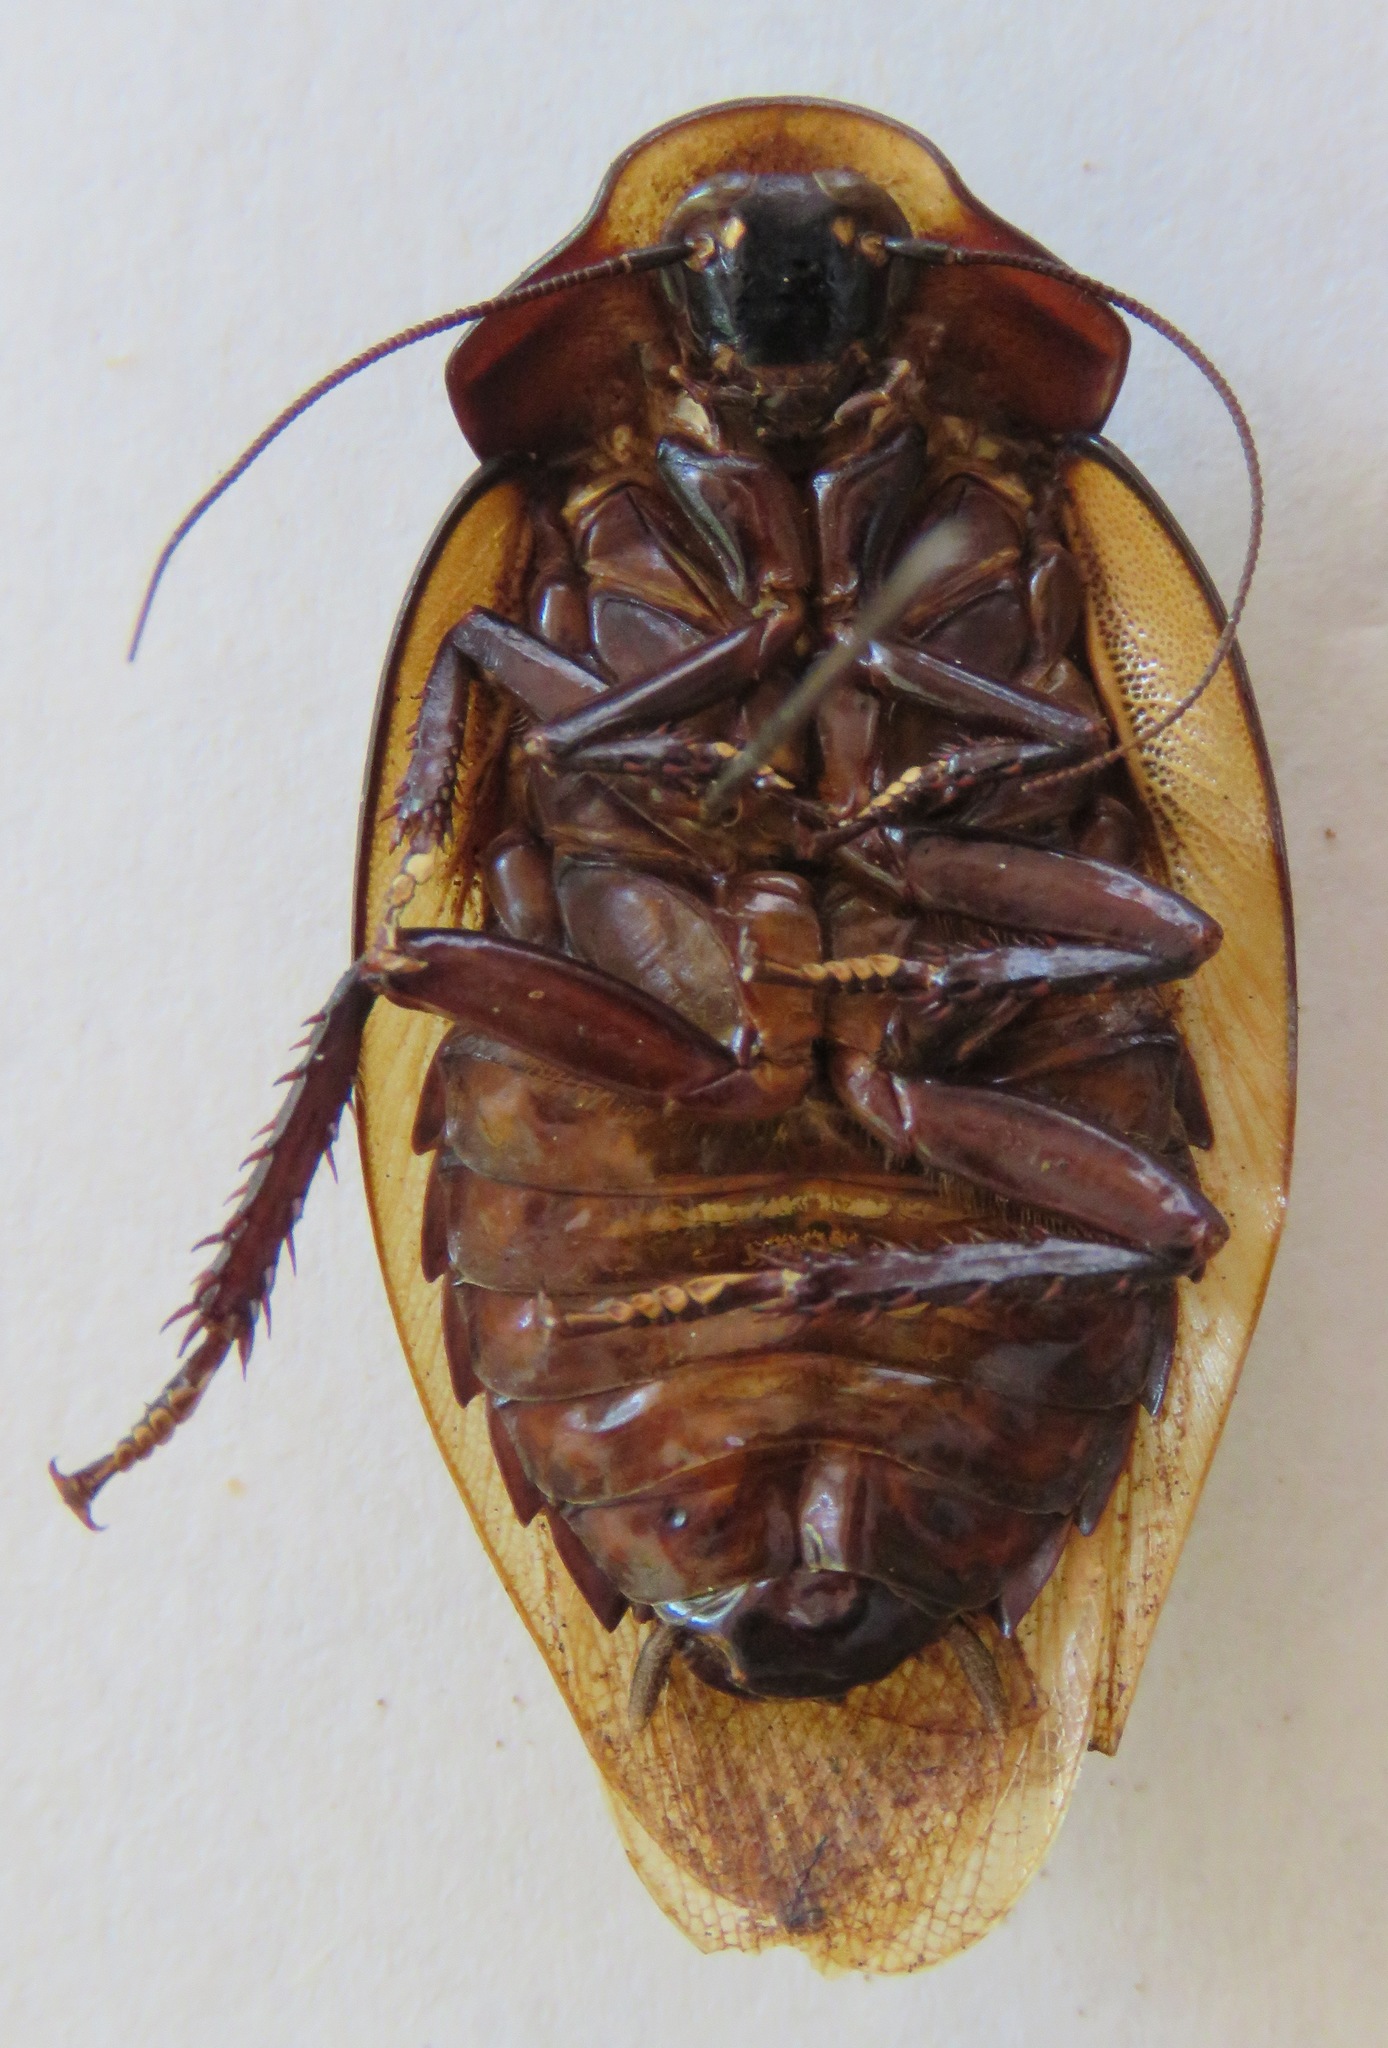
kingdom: Animalia
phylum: Arthropoda
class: Insecta
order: Blattodea
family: Blaberidae
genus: Phortioeca
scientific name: Phortioeca phoraspoides
